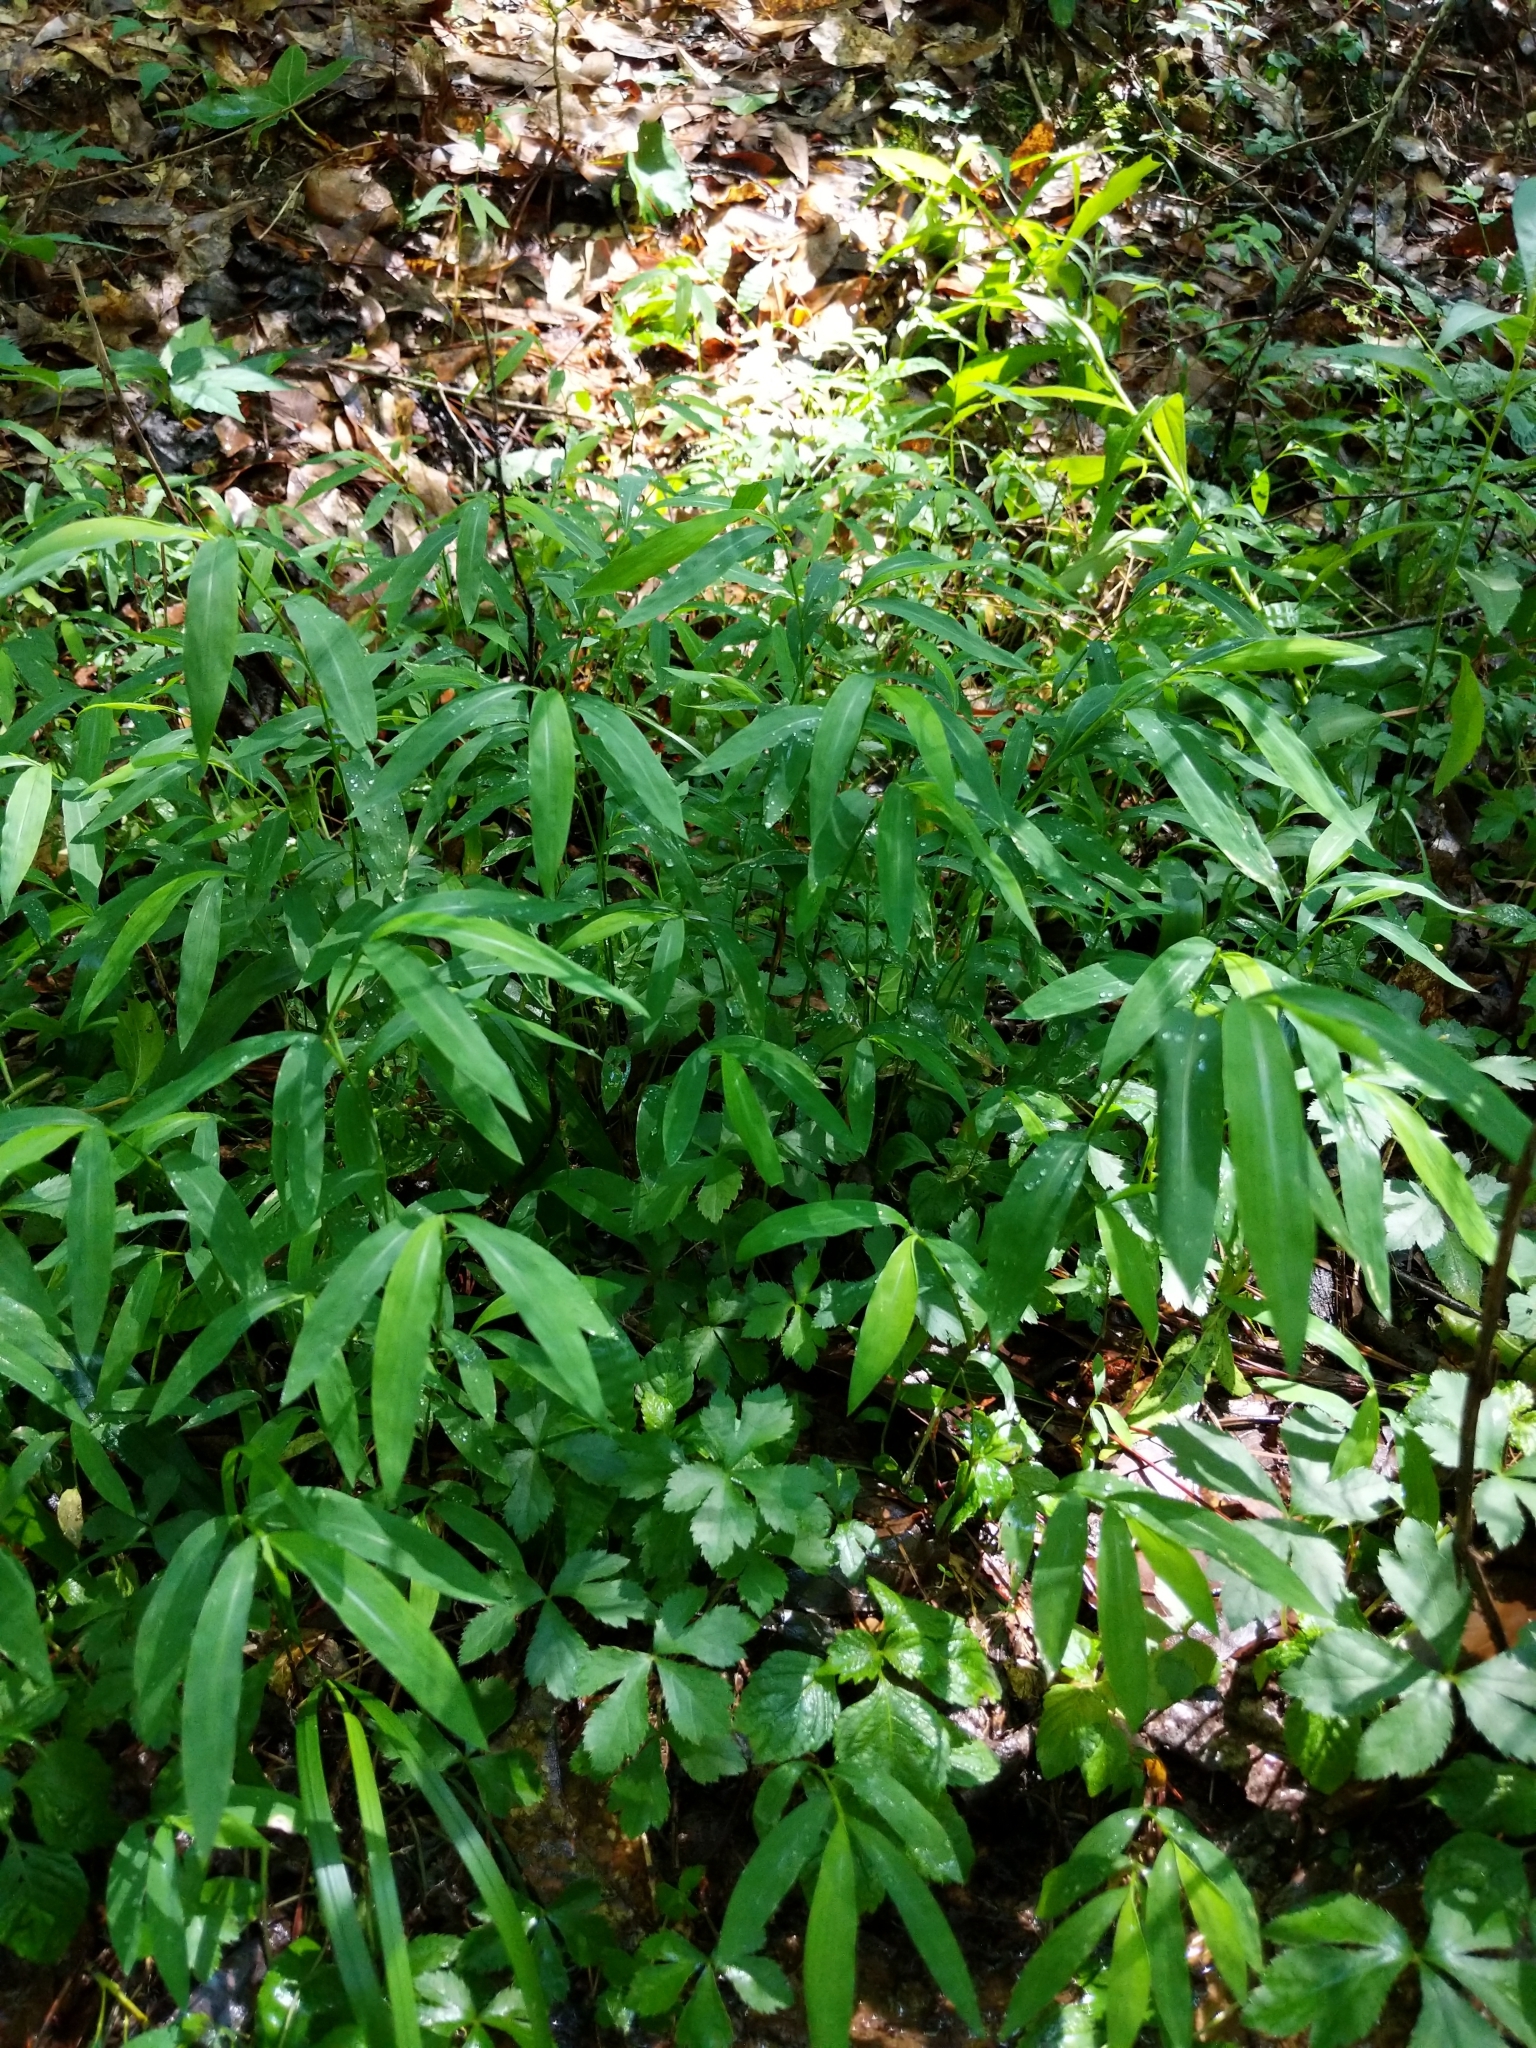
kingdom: Plantae
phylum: Tracheophyta
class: Liliopsida
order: Poales
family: Poaceae
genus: Microstegium
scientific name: Microstegium vimineum
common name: Japanese stiltgrass
